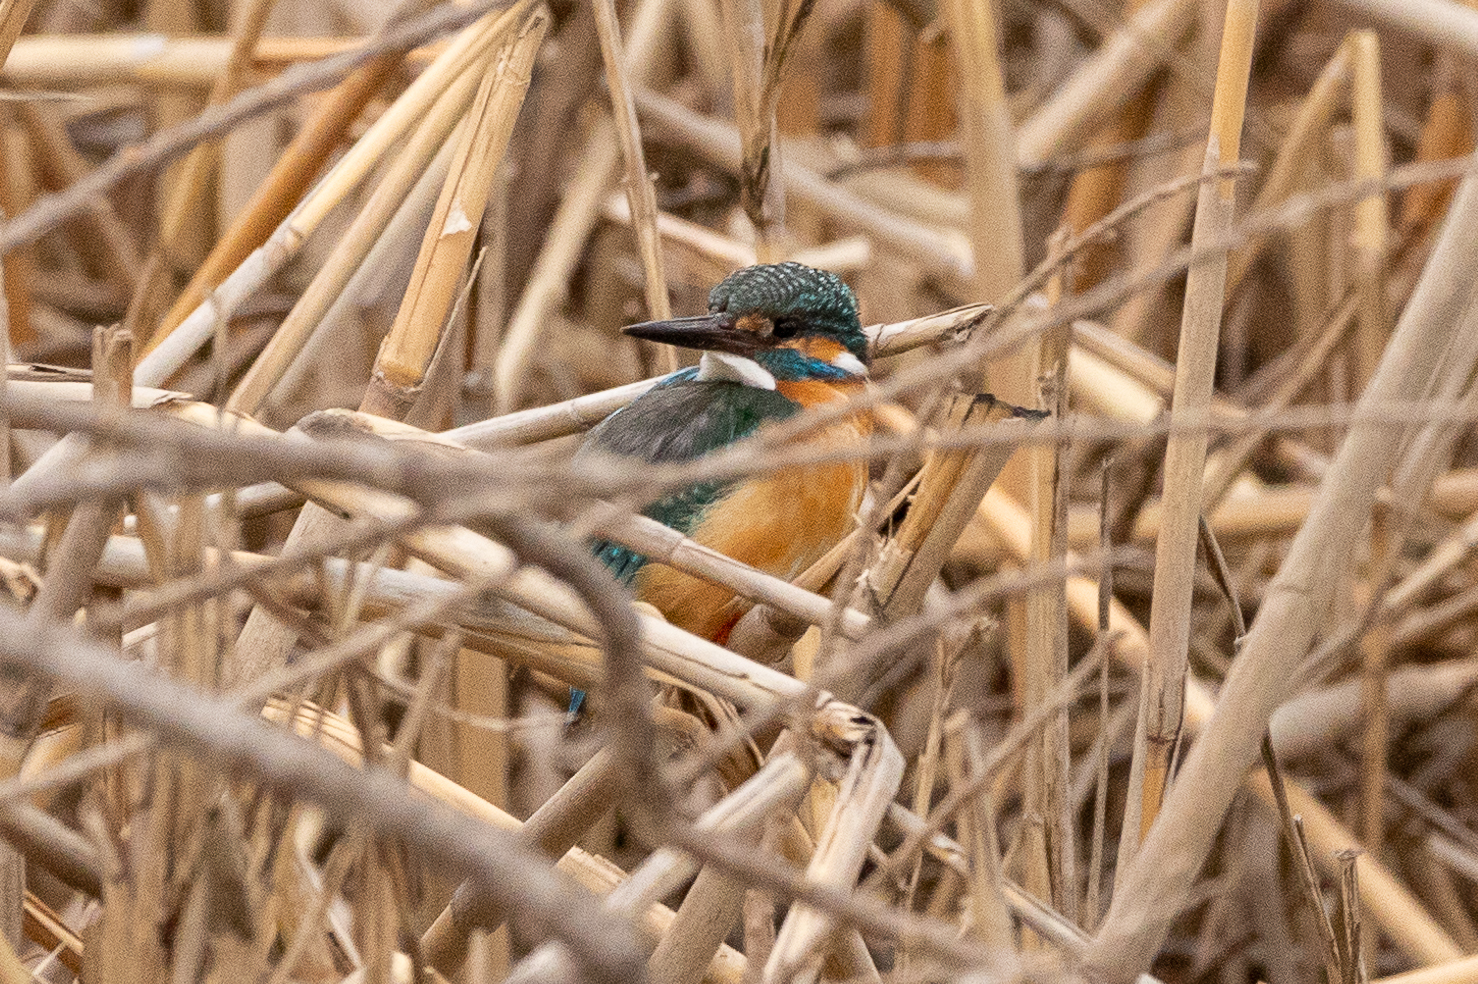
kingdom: Animalia
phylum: Chordata
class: Aves
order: Coraciiformes
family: Alcedinidae
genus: Alcedo
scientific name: Alcedo atthis
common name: Common kingfisher
